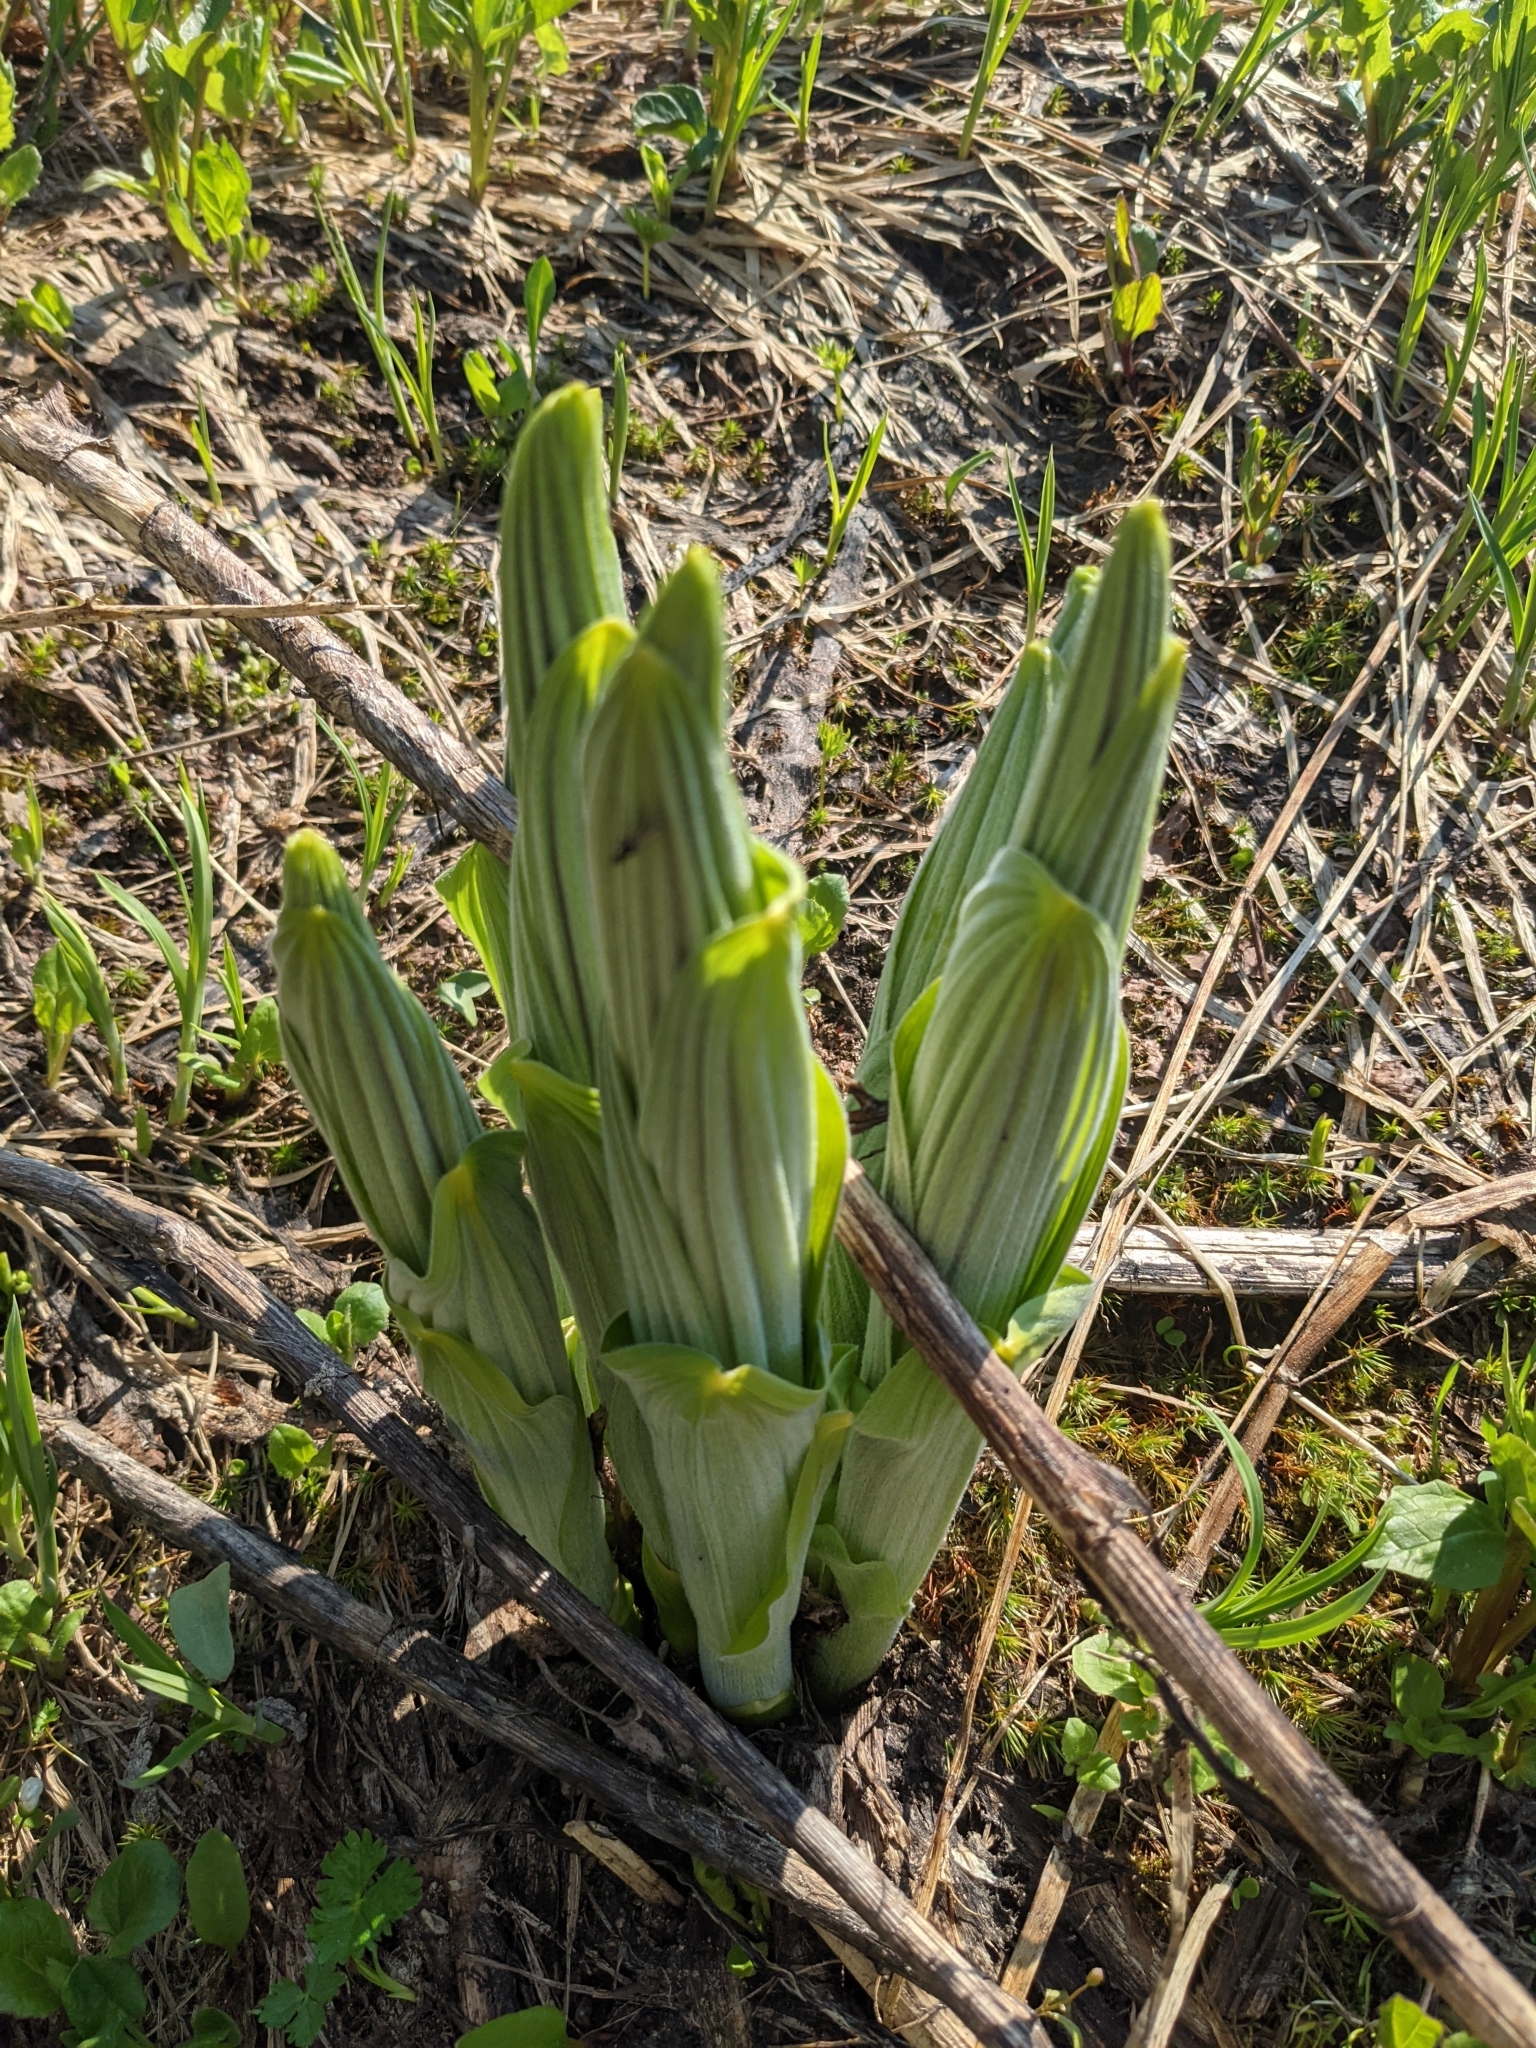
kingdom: Plantae
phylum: Tracheophyta
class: Liliopsida
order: Liliales
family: Melanthiaceae
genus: Veratrum
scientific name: Veratrum viride
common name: American false hellebore
